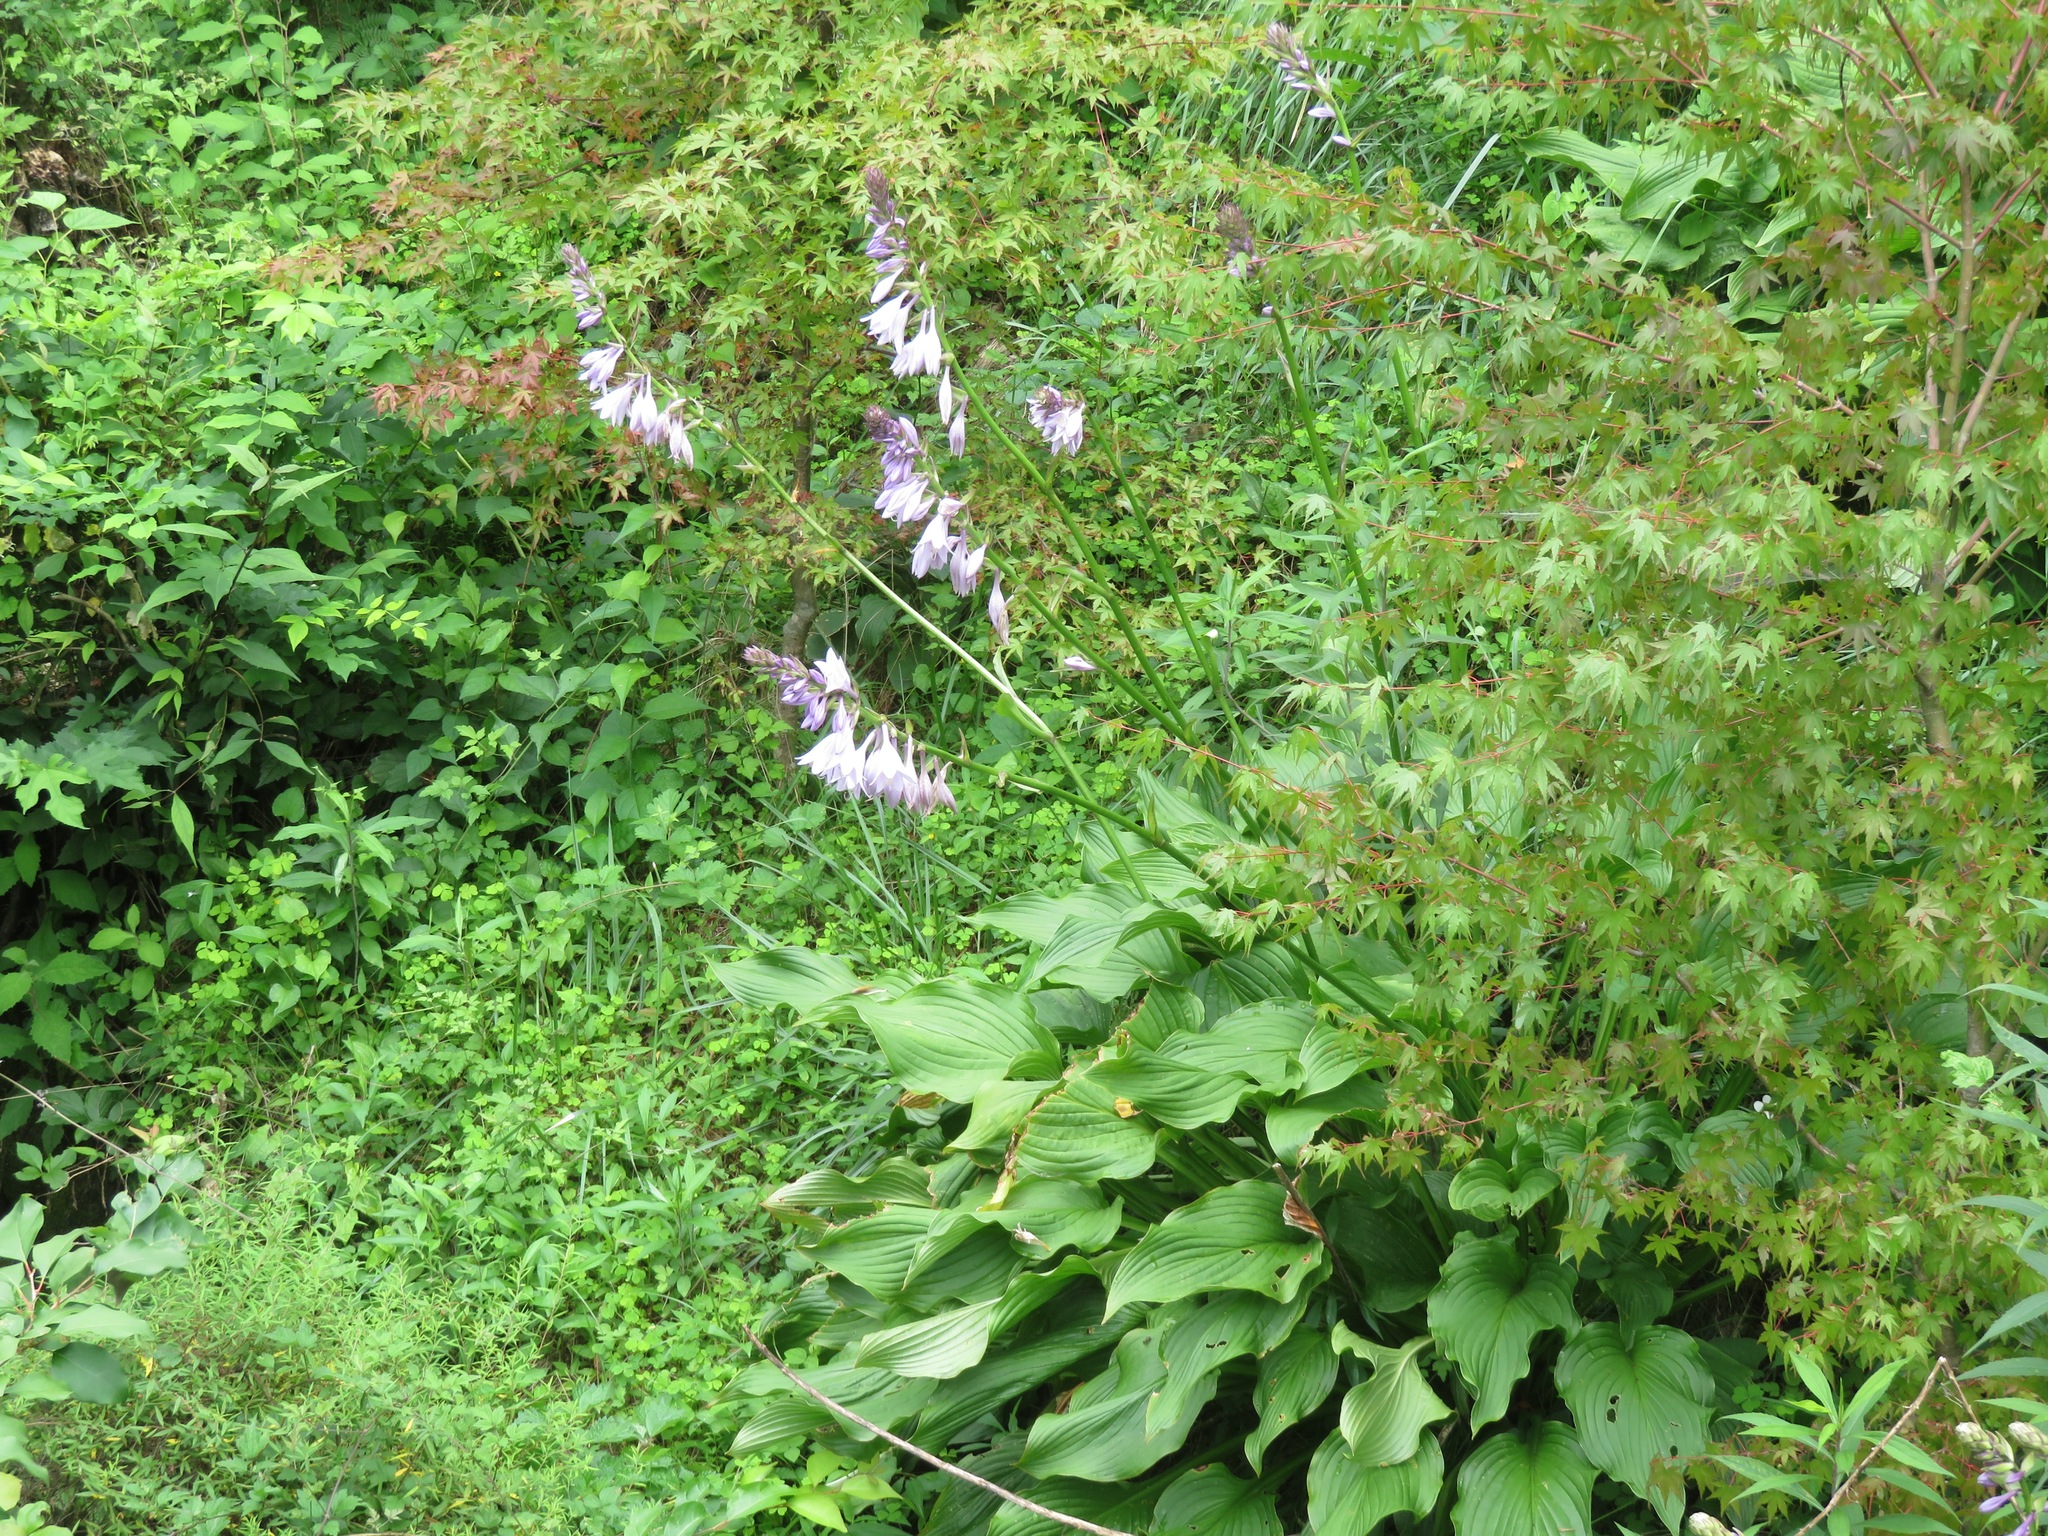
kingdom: Plantae
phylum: Tracheophyta
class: Liliopsida
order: Asparagales
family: Asparagaceae
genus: Hosta
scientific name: Hosta sieboldiana
